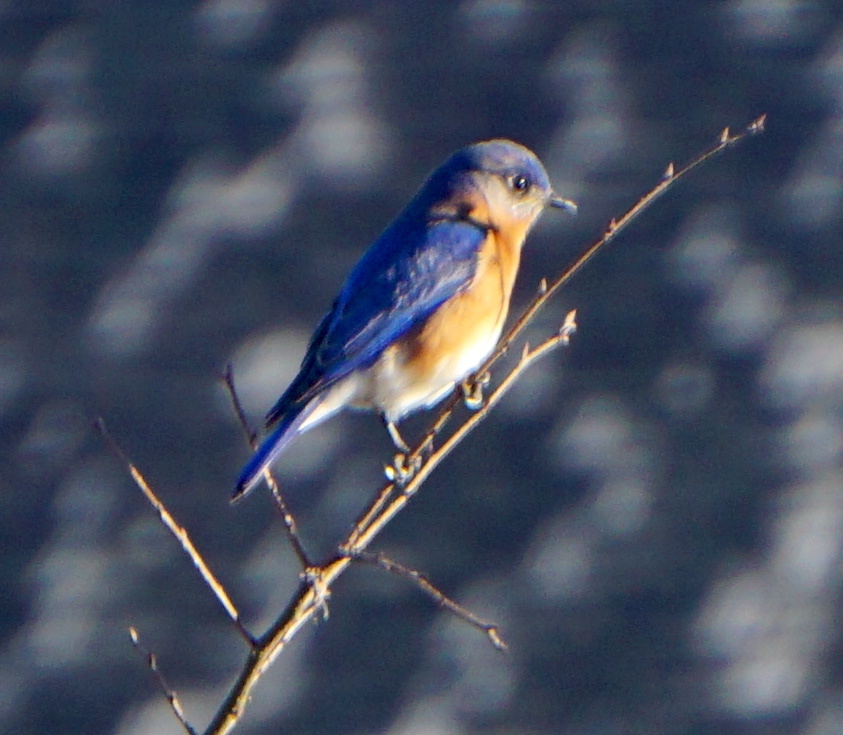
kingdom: Animalia
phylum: Chordata
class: Aves
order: Passeriformes
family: Turdidae
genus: Sialia
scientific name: Sialia sialis
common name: Eastern bluebird
